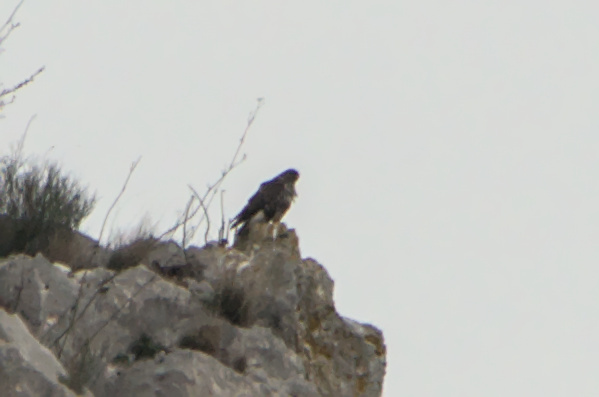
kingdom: Animalia
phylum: Chordata
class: Aves
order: Accipitriformes
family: Accipitridae
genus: Buteo
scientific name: Buteo buteo
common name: Common buzzard
